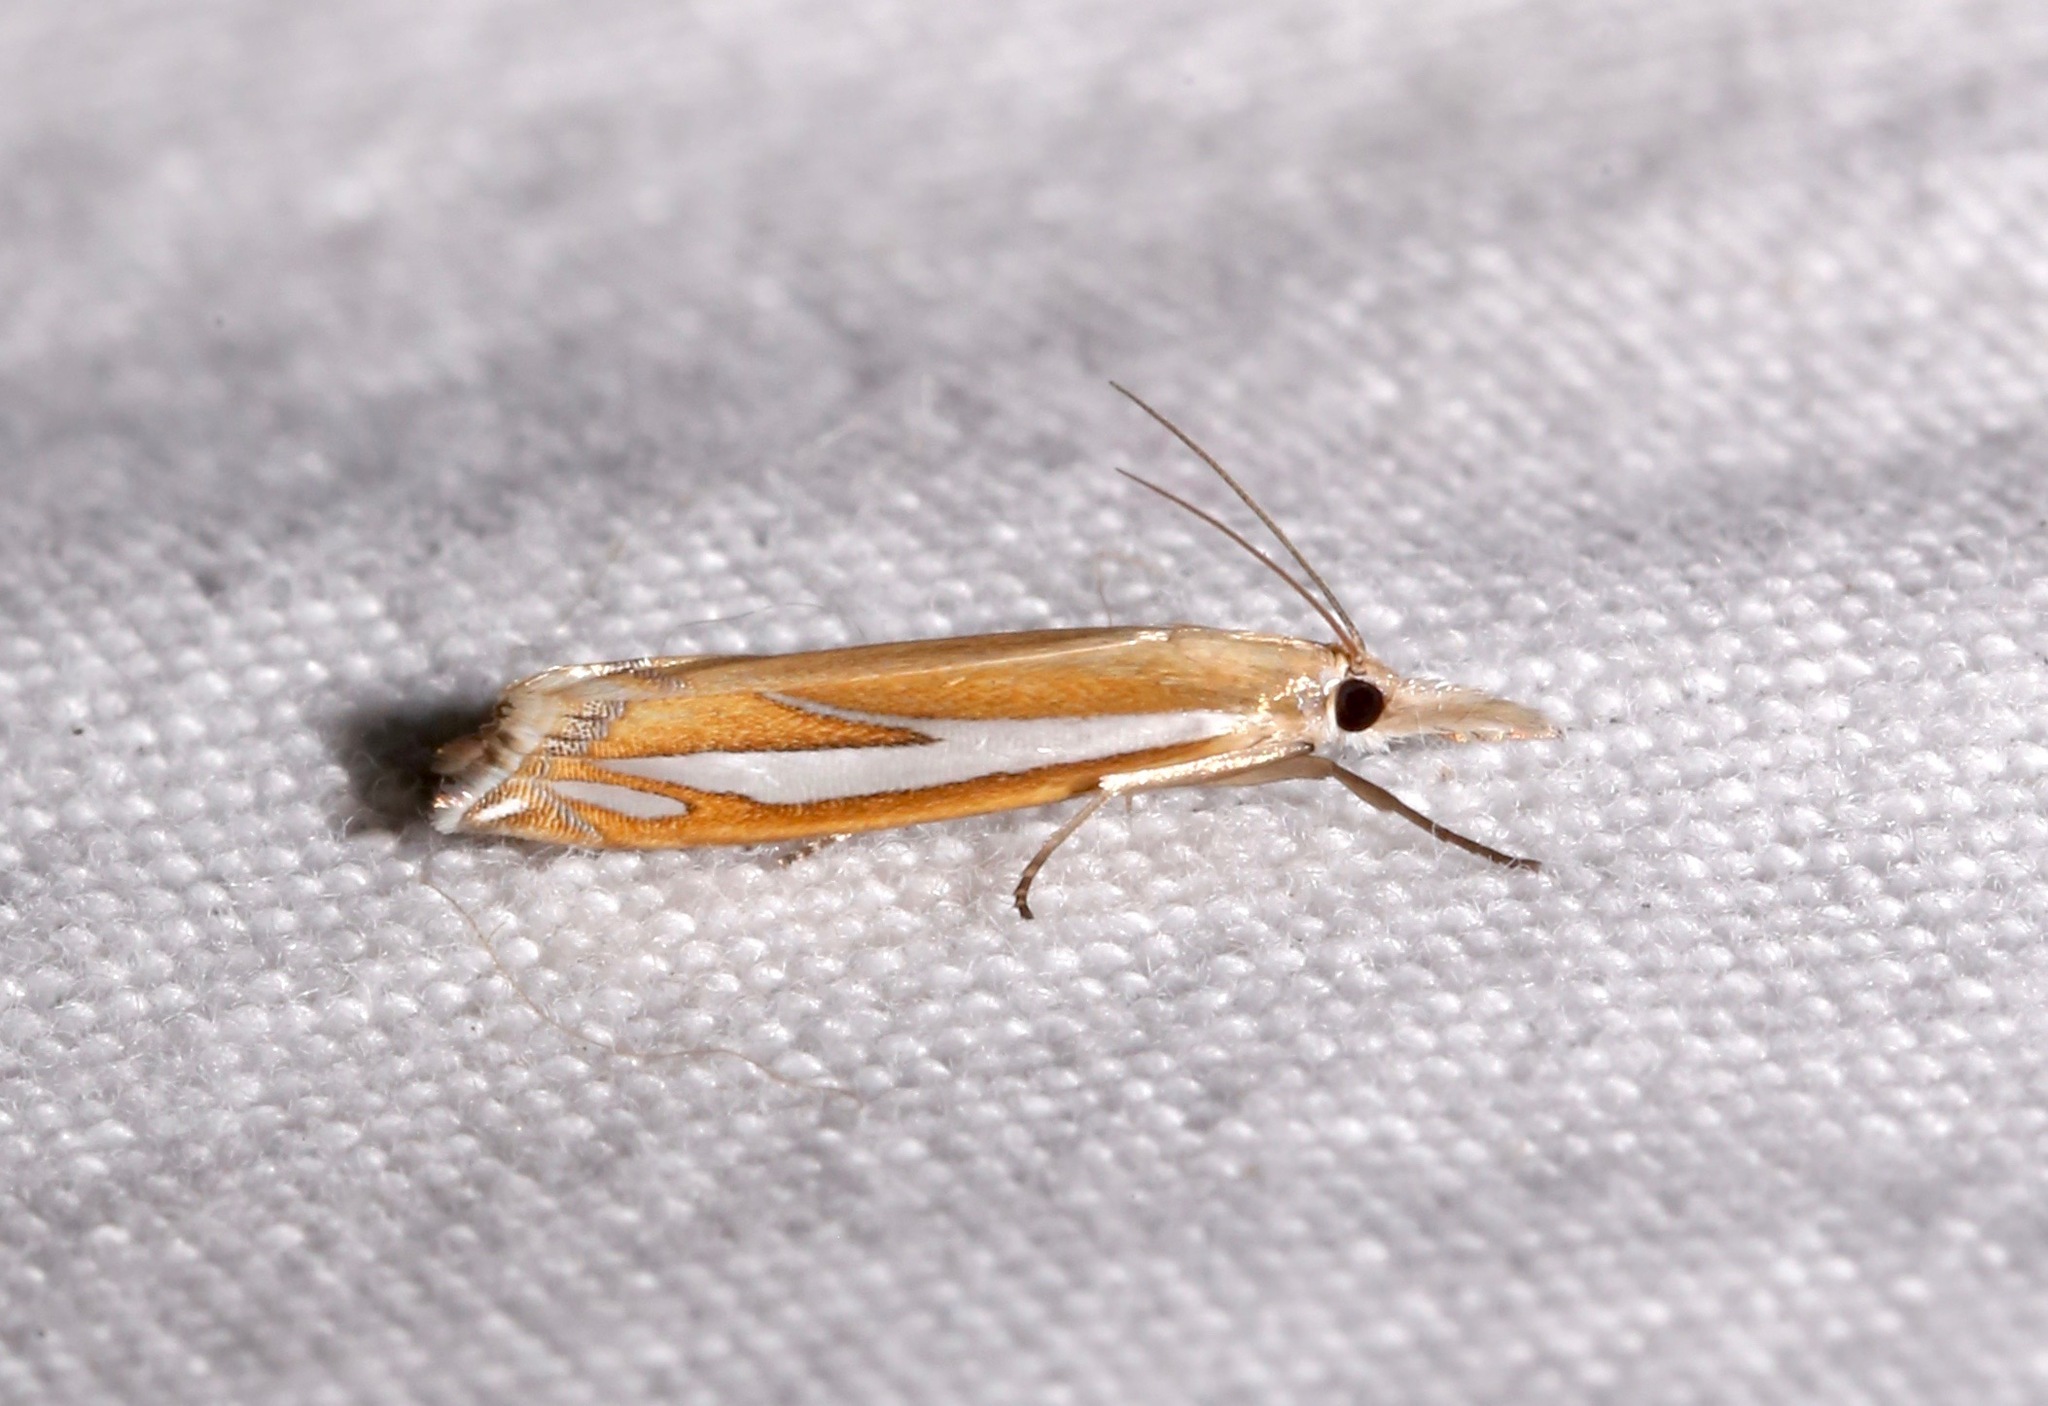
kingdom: Animalia
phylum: Arthropoda
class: Insecta
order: Lepidoptera
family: Crambidae
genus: Crambus
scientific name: Crambus satrapellus
